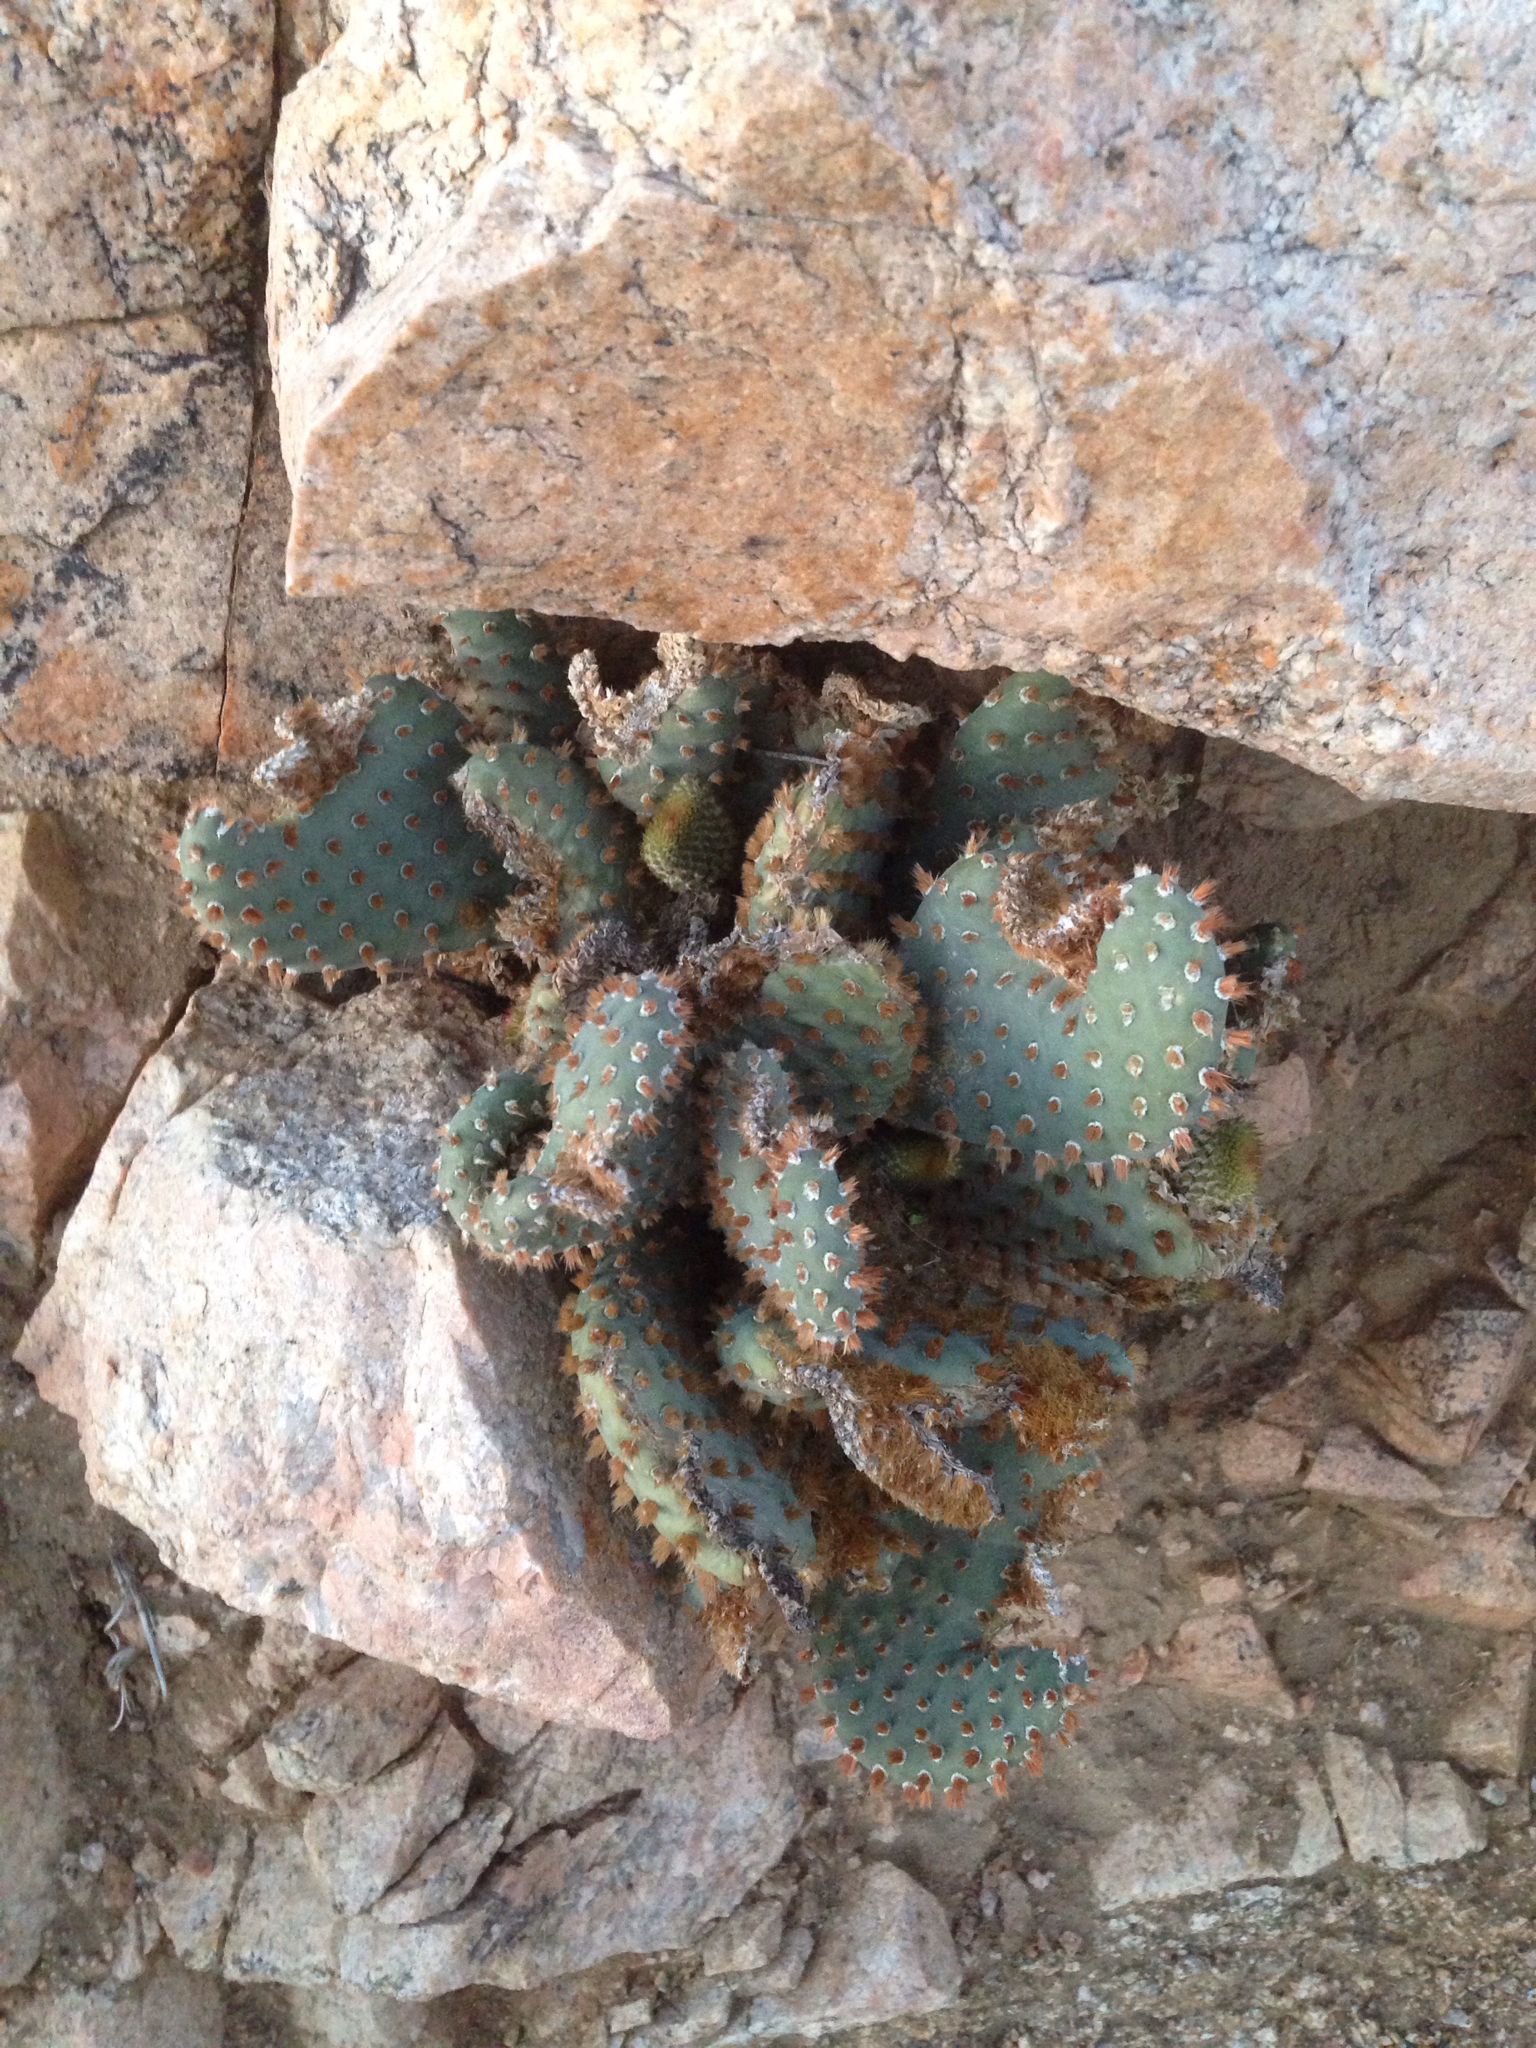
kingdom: Plantae
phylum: Tracheophyta
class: Magnoliopsida
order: Caryophyllales
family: Cactaceae
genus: Opuntia
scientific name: Opuntia basilaris
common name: Beavertail prickly-pear
